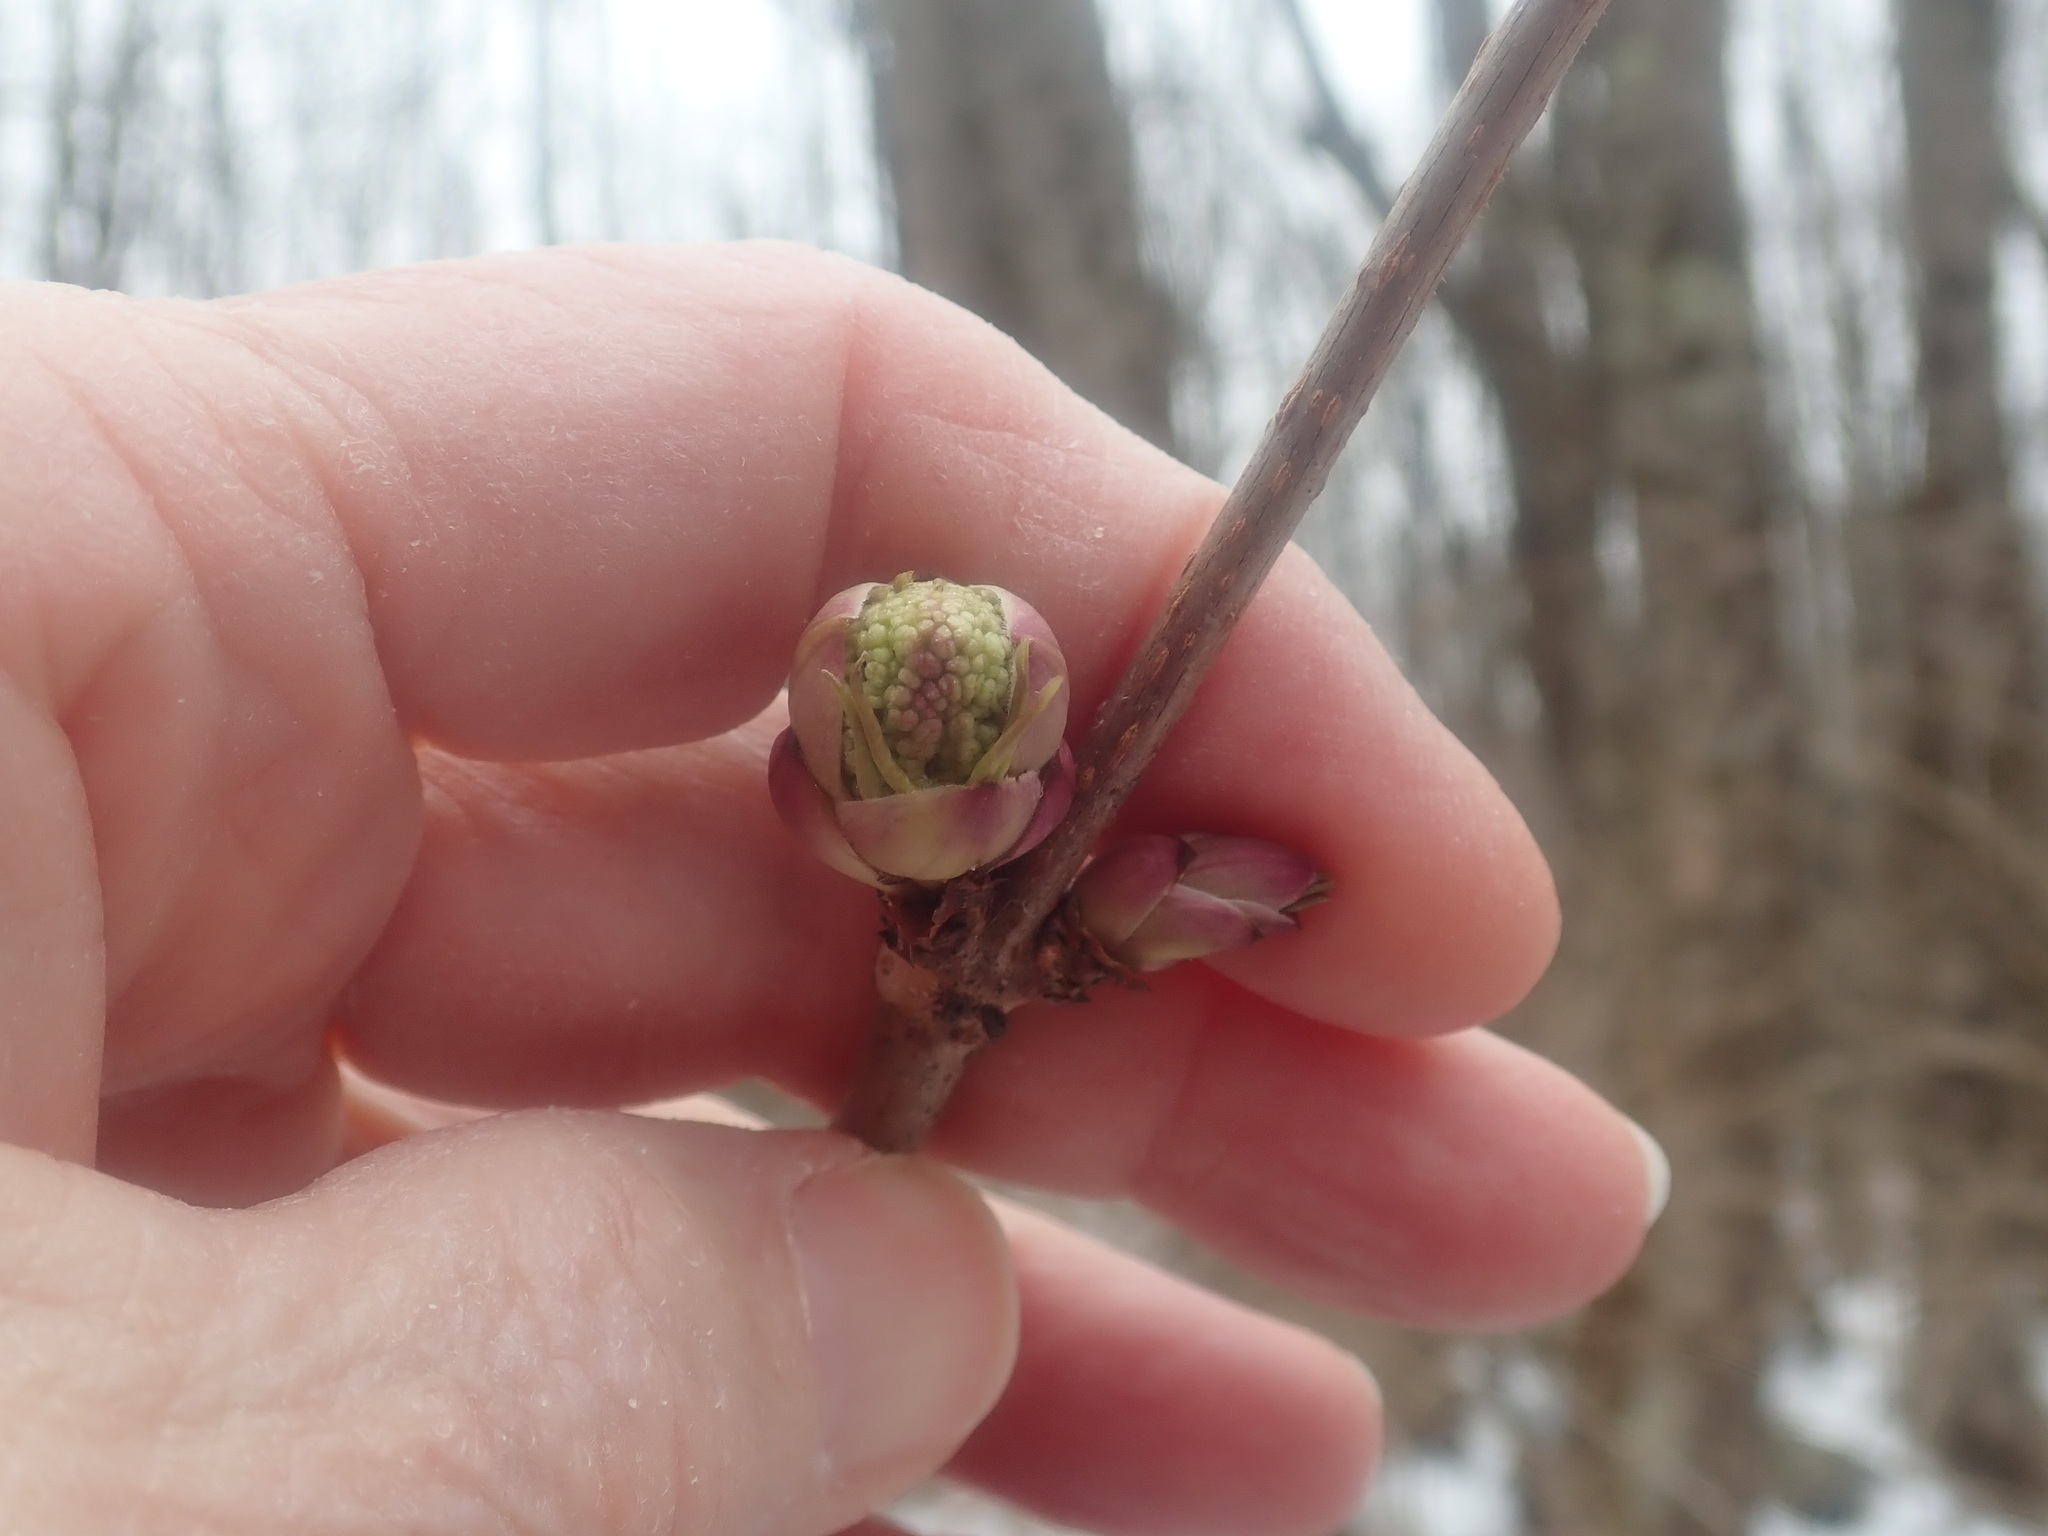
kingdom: Plantae
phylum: Tracheophyta
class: Magnoliopsida
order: Dipsacales
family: Viburnaceae
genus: Sambucus
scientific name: Sambucus racemosa
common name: Red-berried elder
